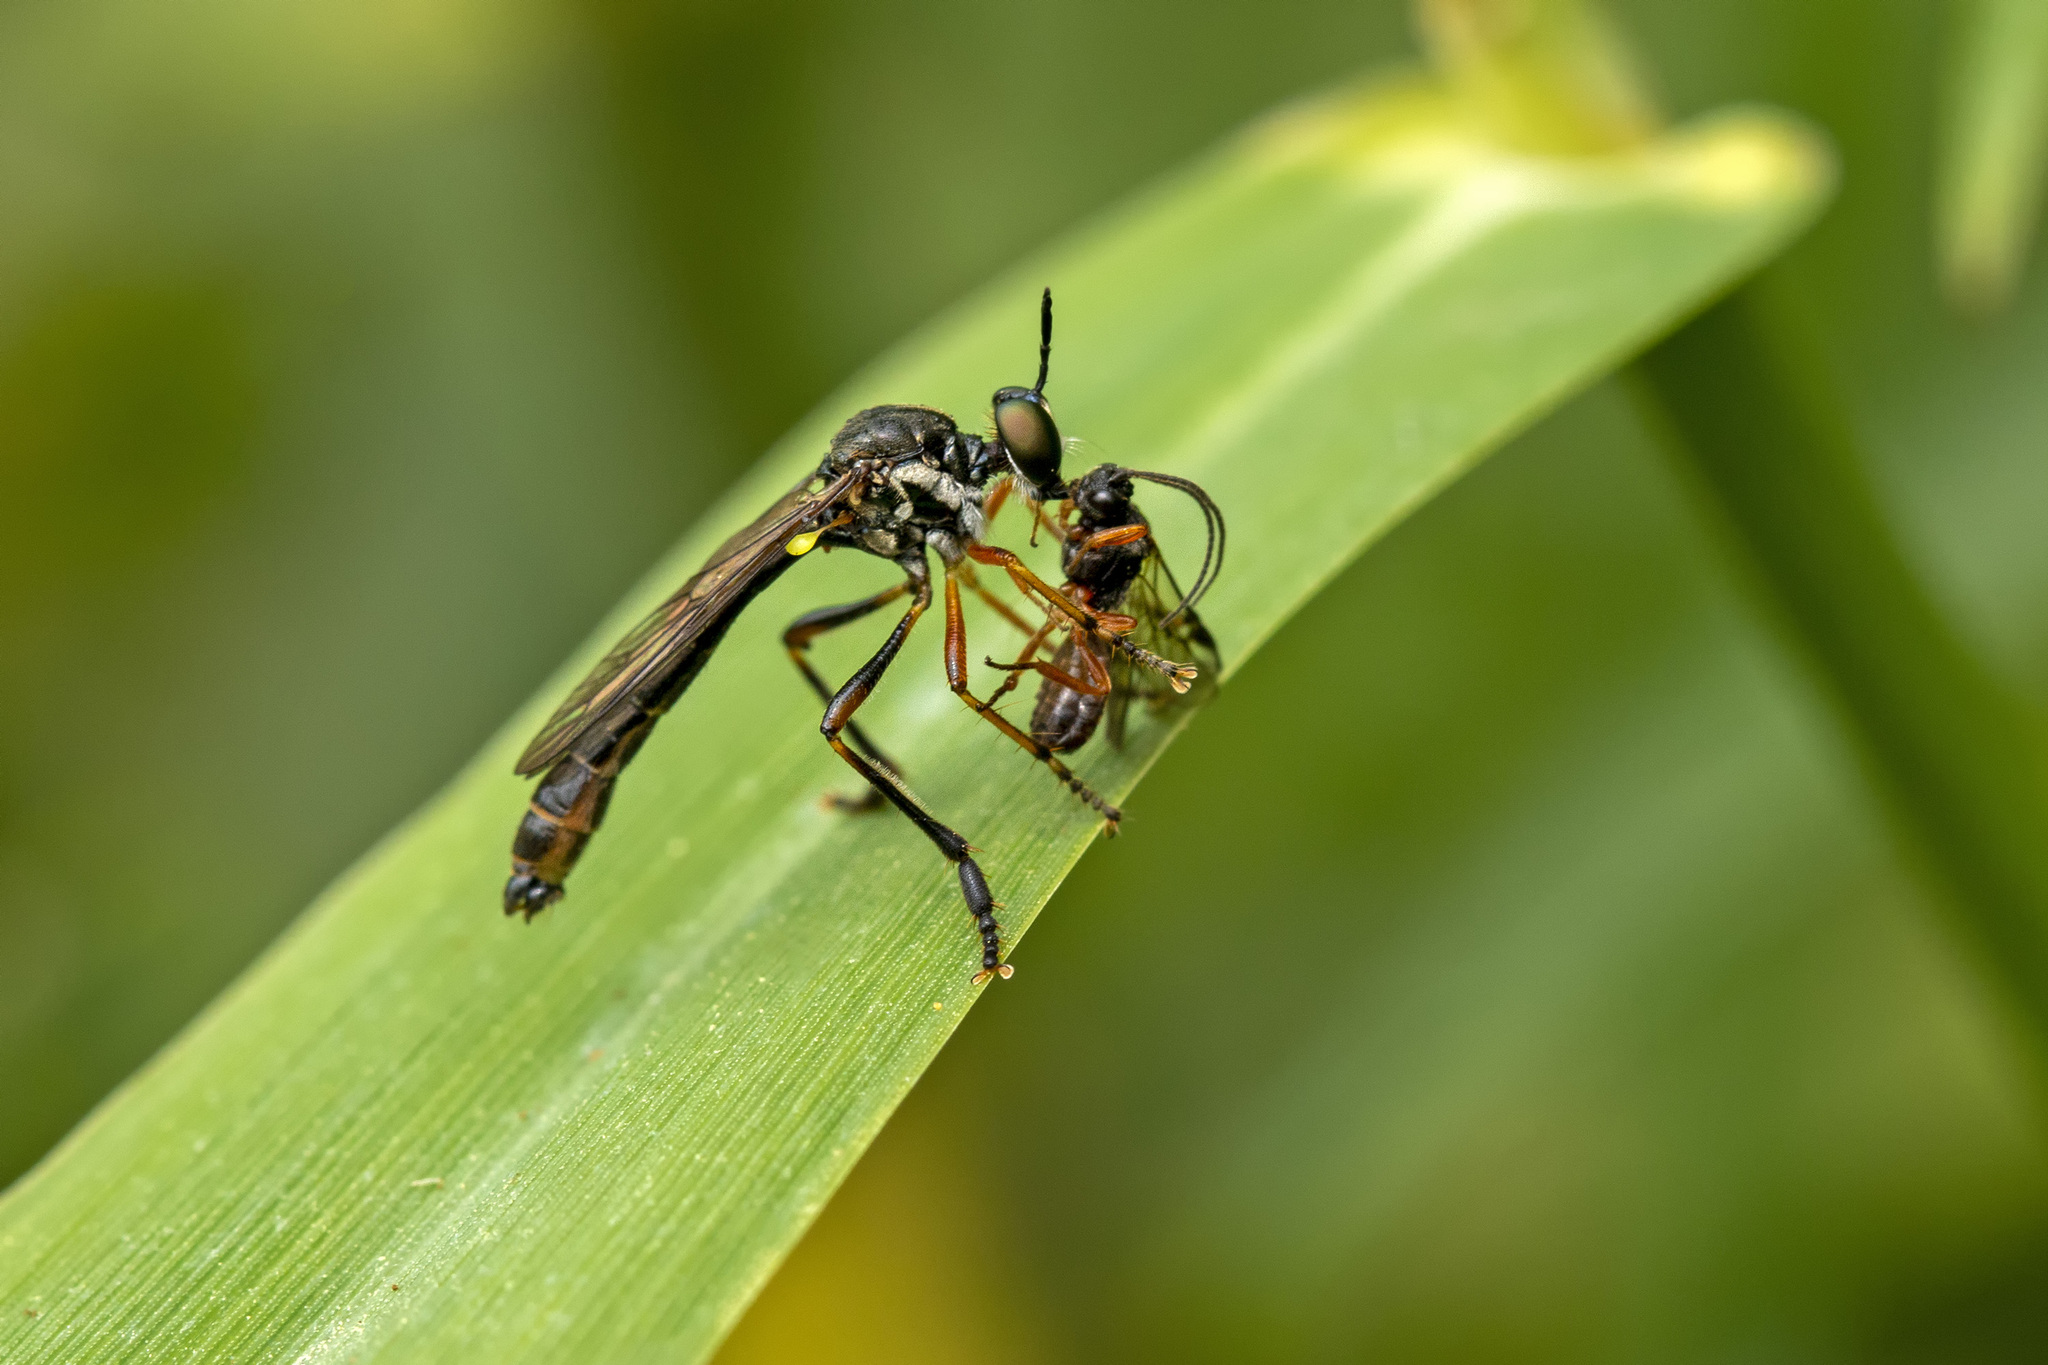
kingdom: Animalia
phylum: Arthropoda
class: Insecta
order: Diptera
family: Asilidae
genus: Dioctria
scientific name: Dioctria hyalipennis
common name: Stripe-legged robberfly
